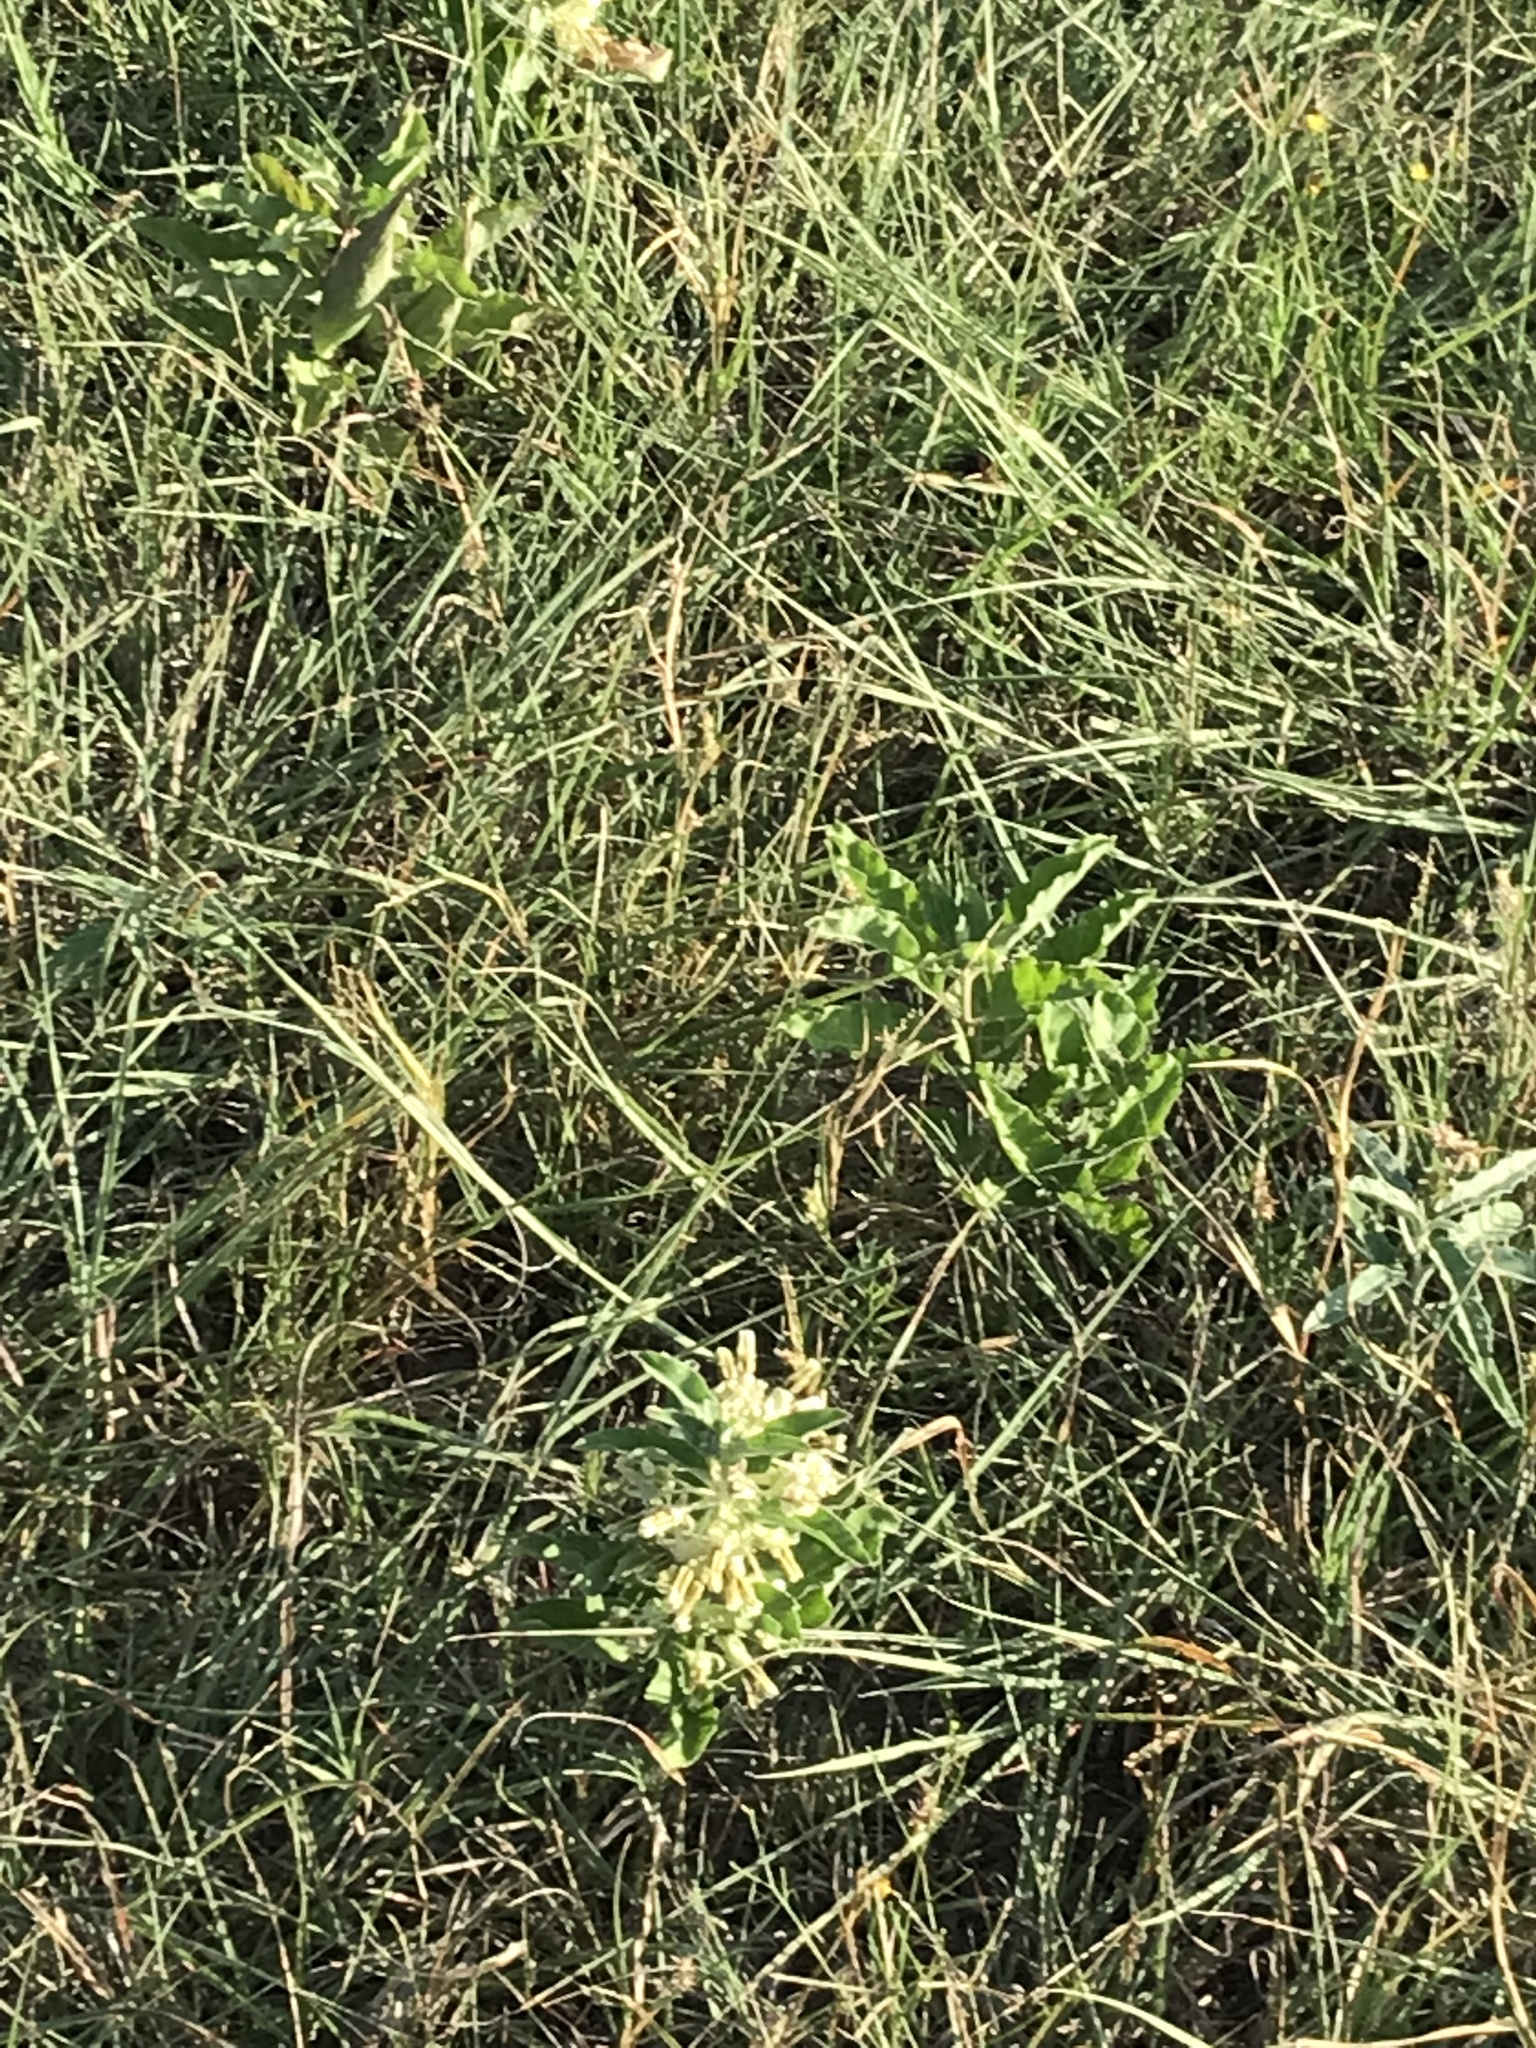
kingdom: Plantae
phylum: Tracheophyta
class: Magnoliopsida
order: Gentianales
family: Apocynaceae
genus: Asclepias
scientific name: Asclepias oenotheroides
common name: Zizotes milkweed
